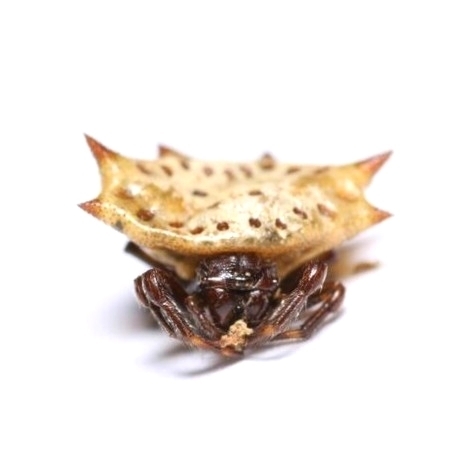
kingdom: Animalia
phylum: Arthropoda
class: Arachnida
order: Araneae
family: Araneidae
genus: Gasteracantha
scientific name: Gasteracantha cancriformis
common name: Orb weavers
